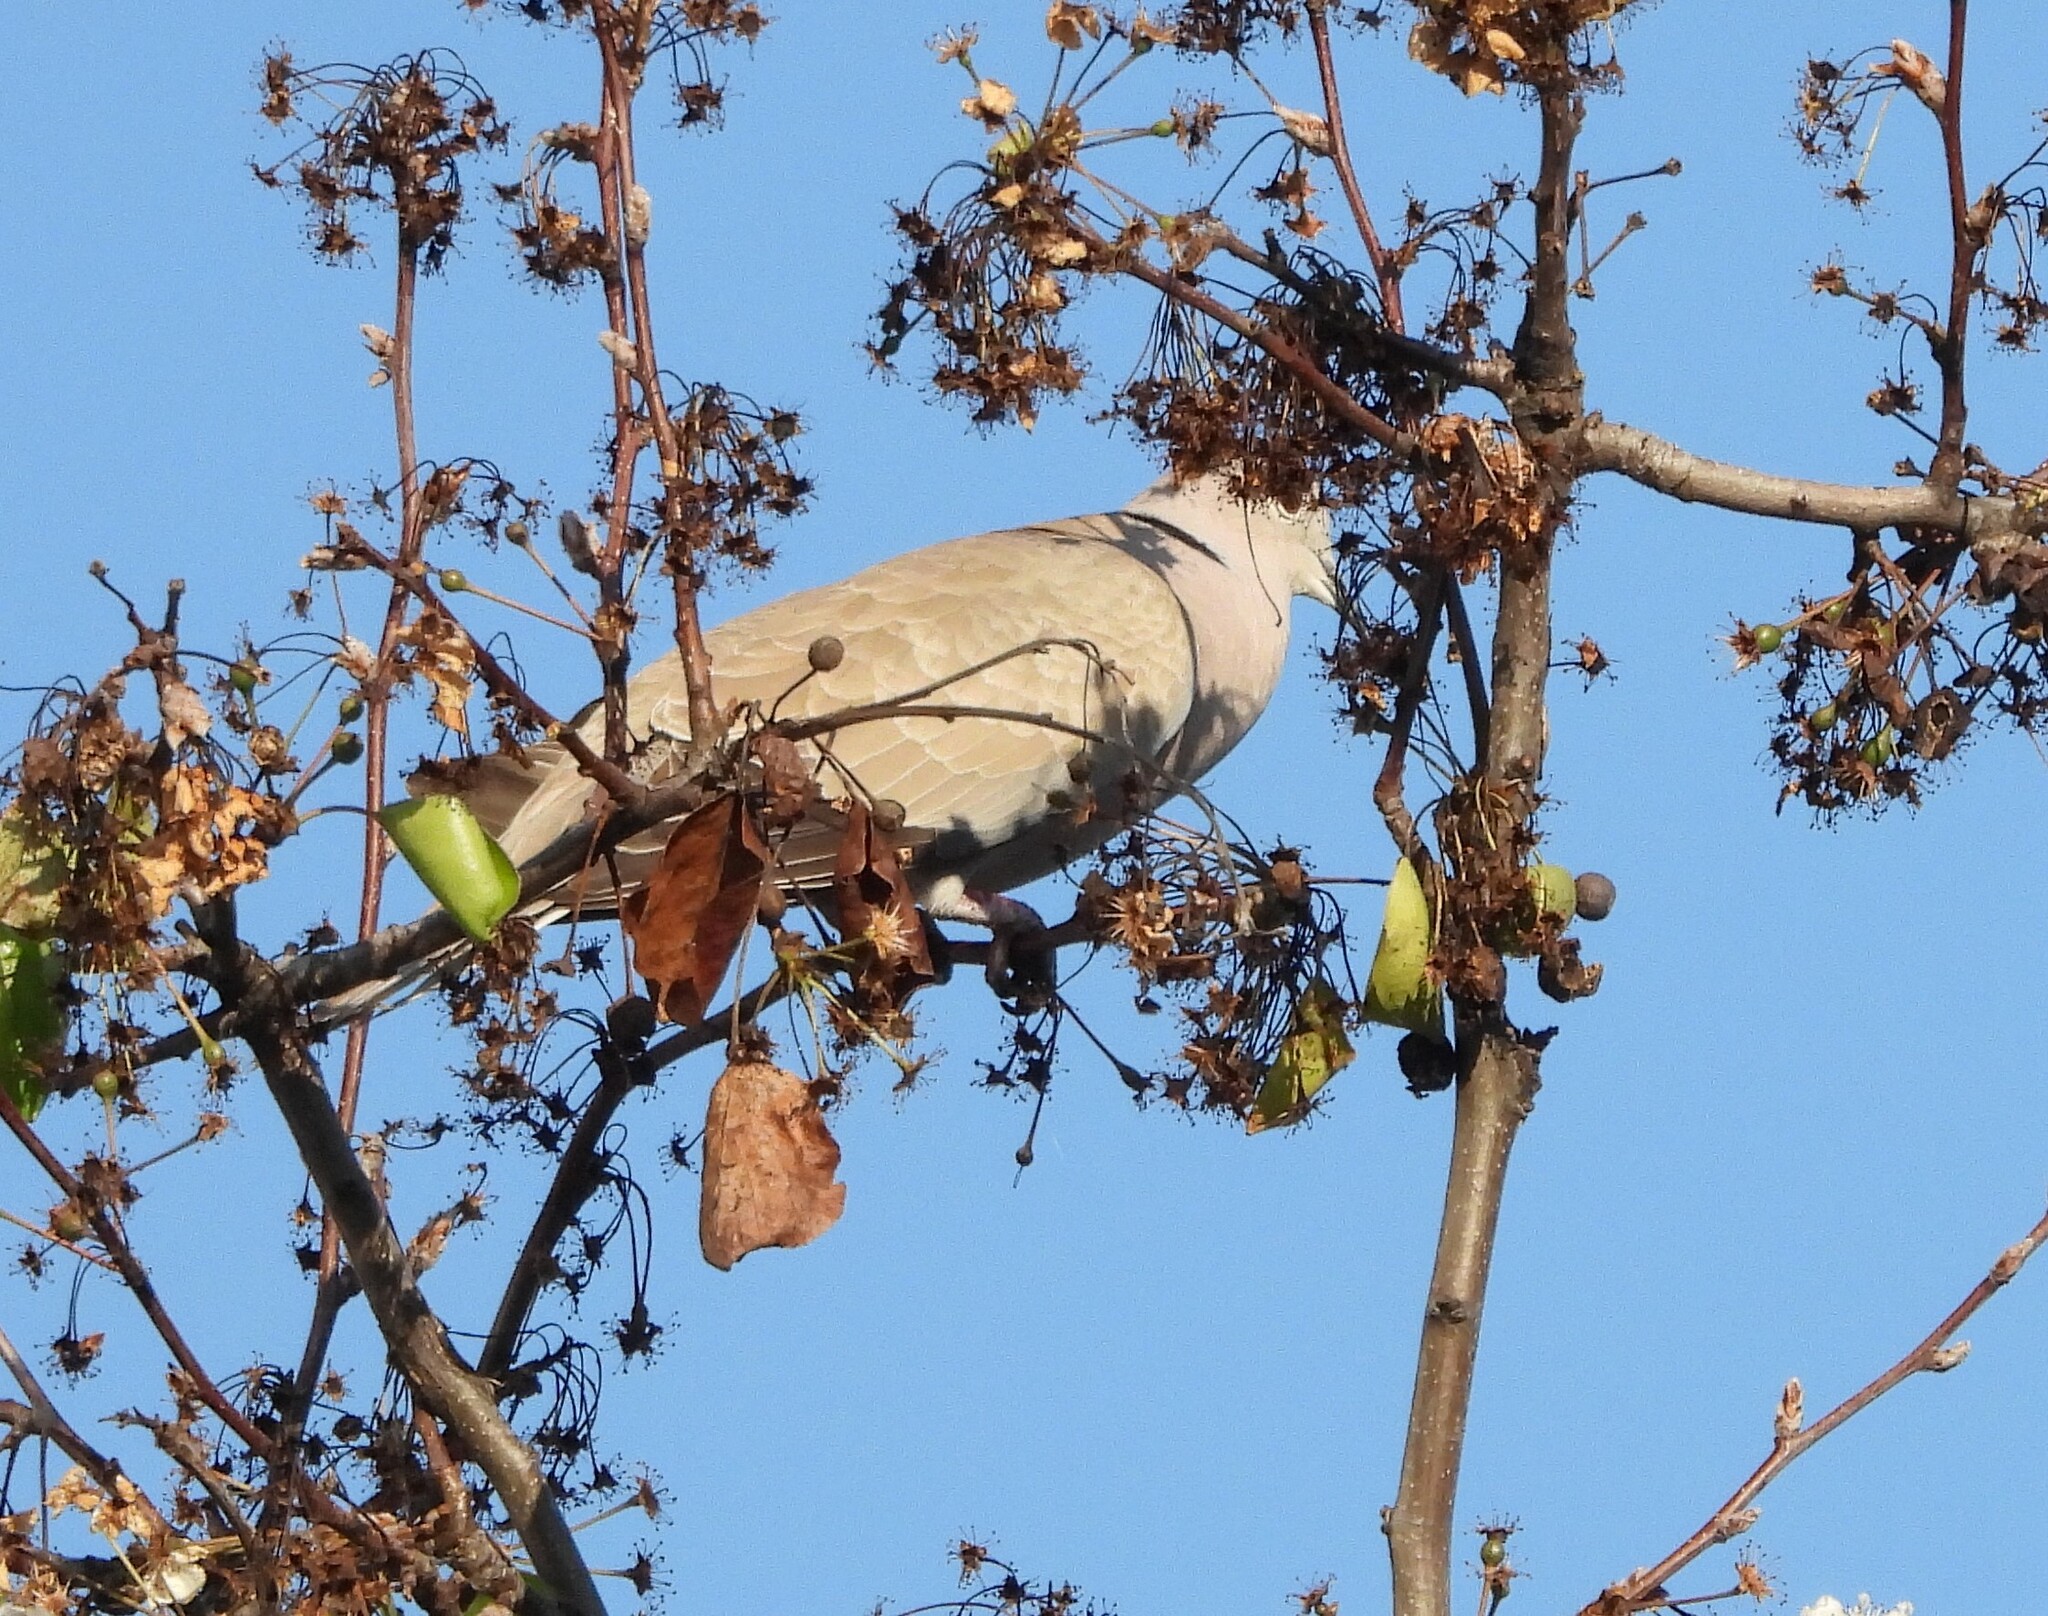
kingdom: Animalia
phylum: Chordata
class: Aves
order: Columbiformes
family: Columbidae
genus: Streptopelia
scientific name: Streptopelia decaocto
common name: Eurasian collared dove
